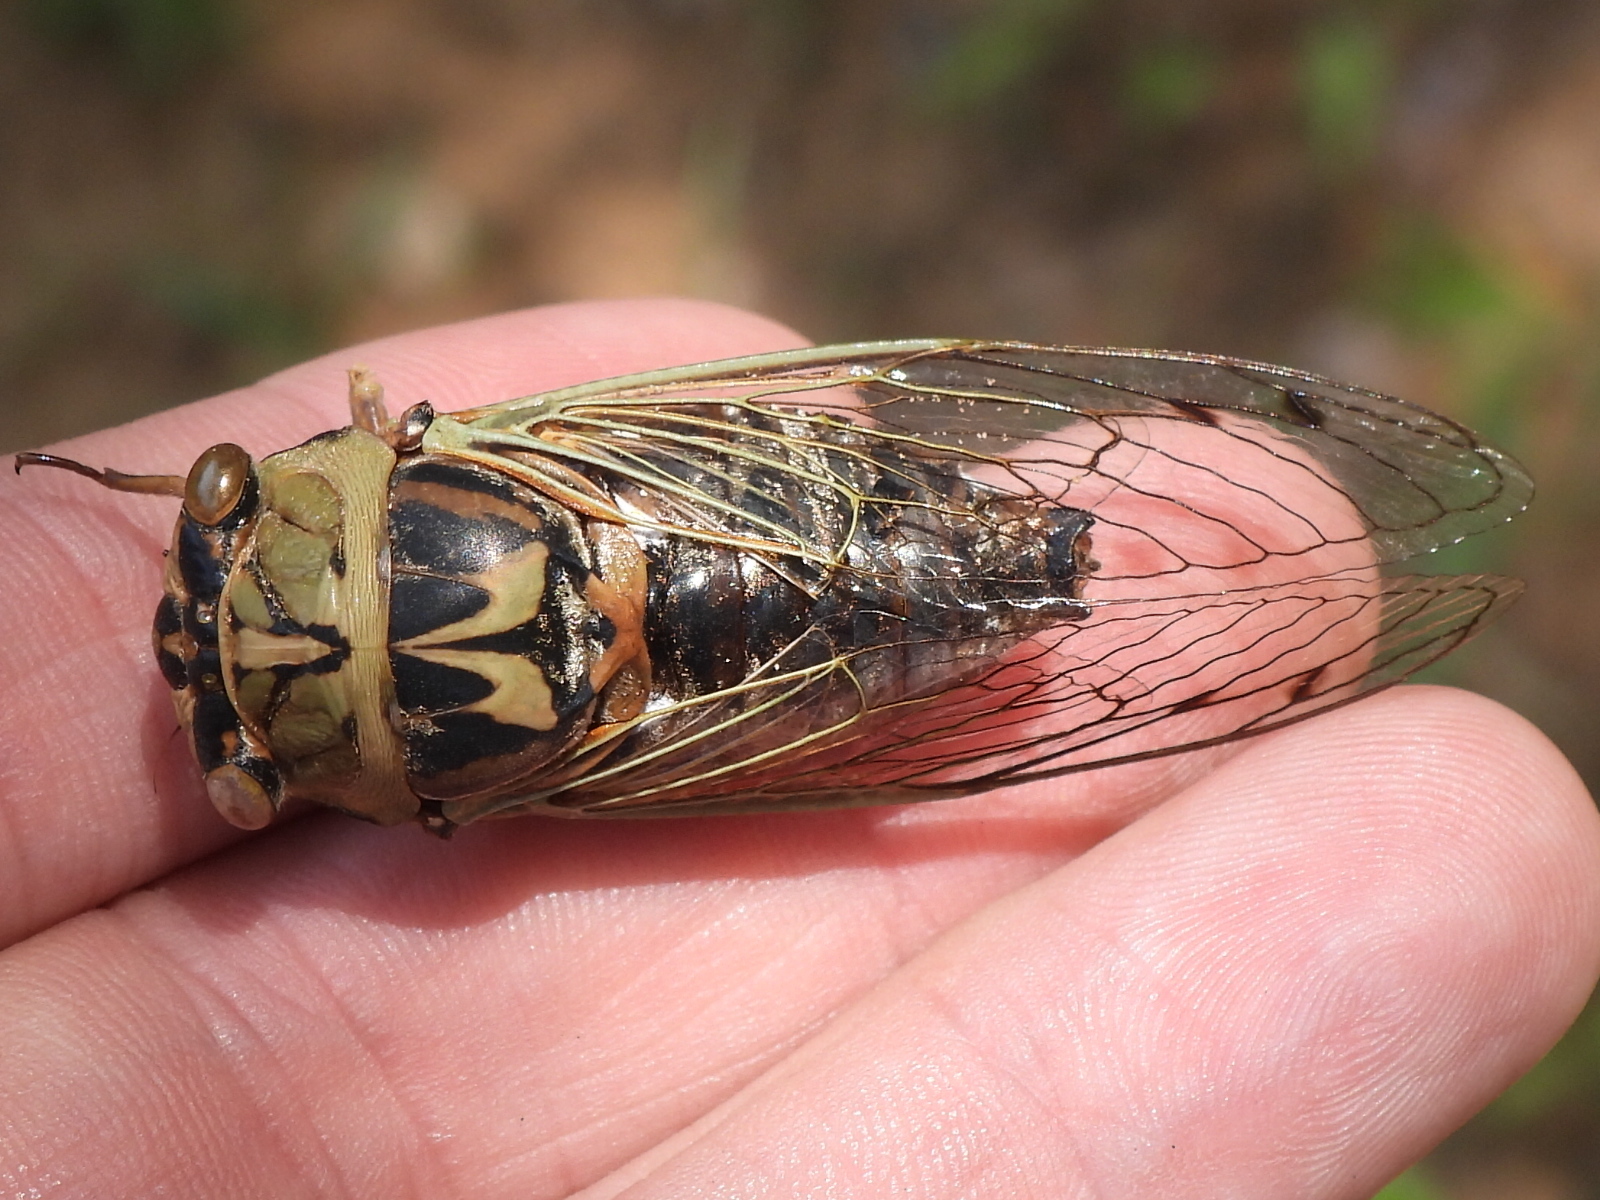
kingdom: Animalia
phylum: Arthropoda
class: Insecta
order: Hemiptera
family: Cicadidae
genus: Megatibicen
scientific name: Megatibicen resh
